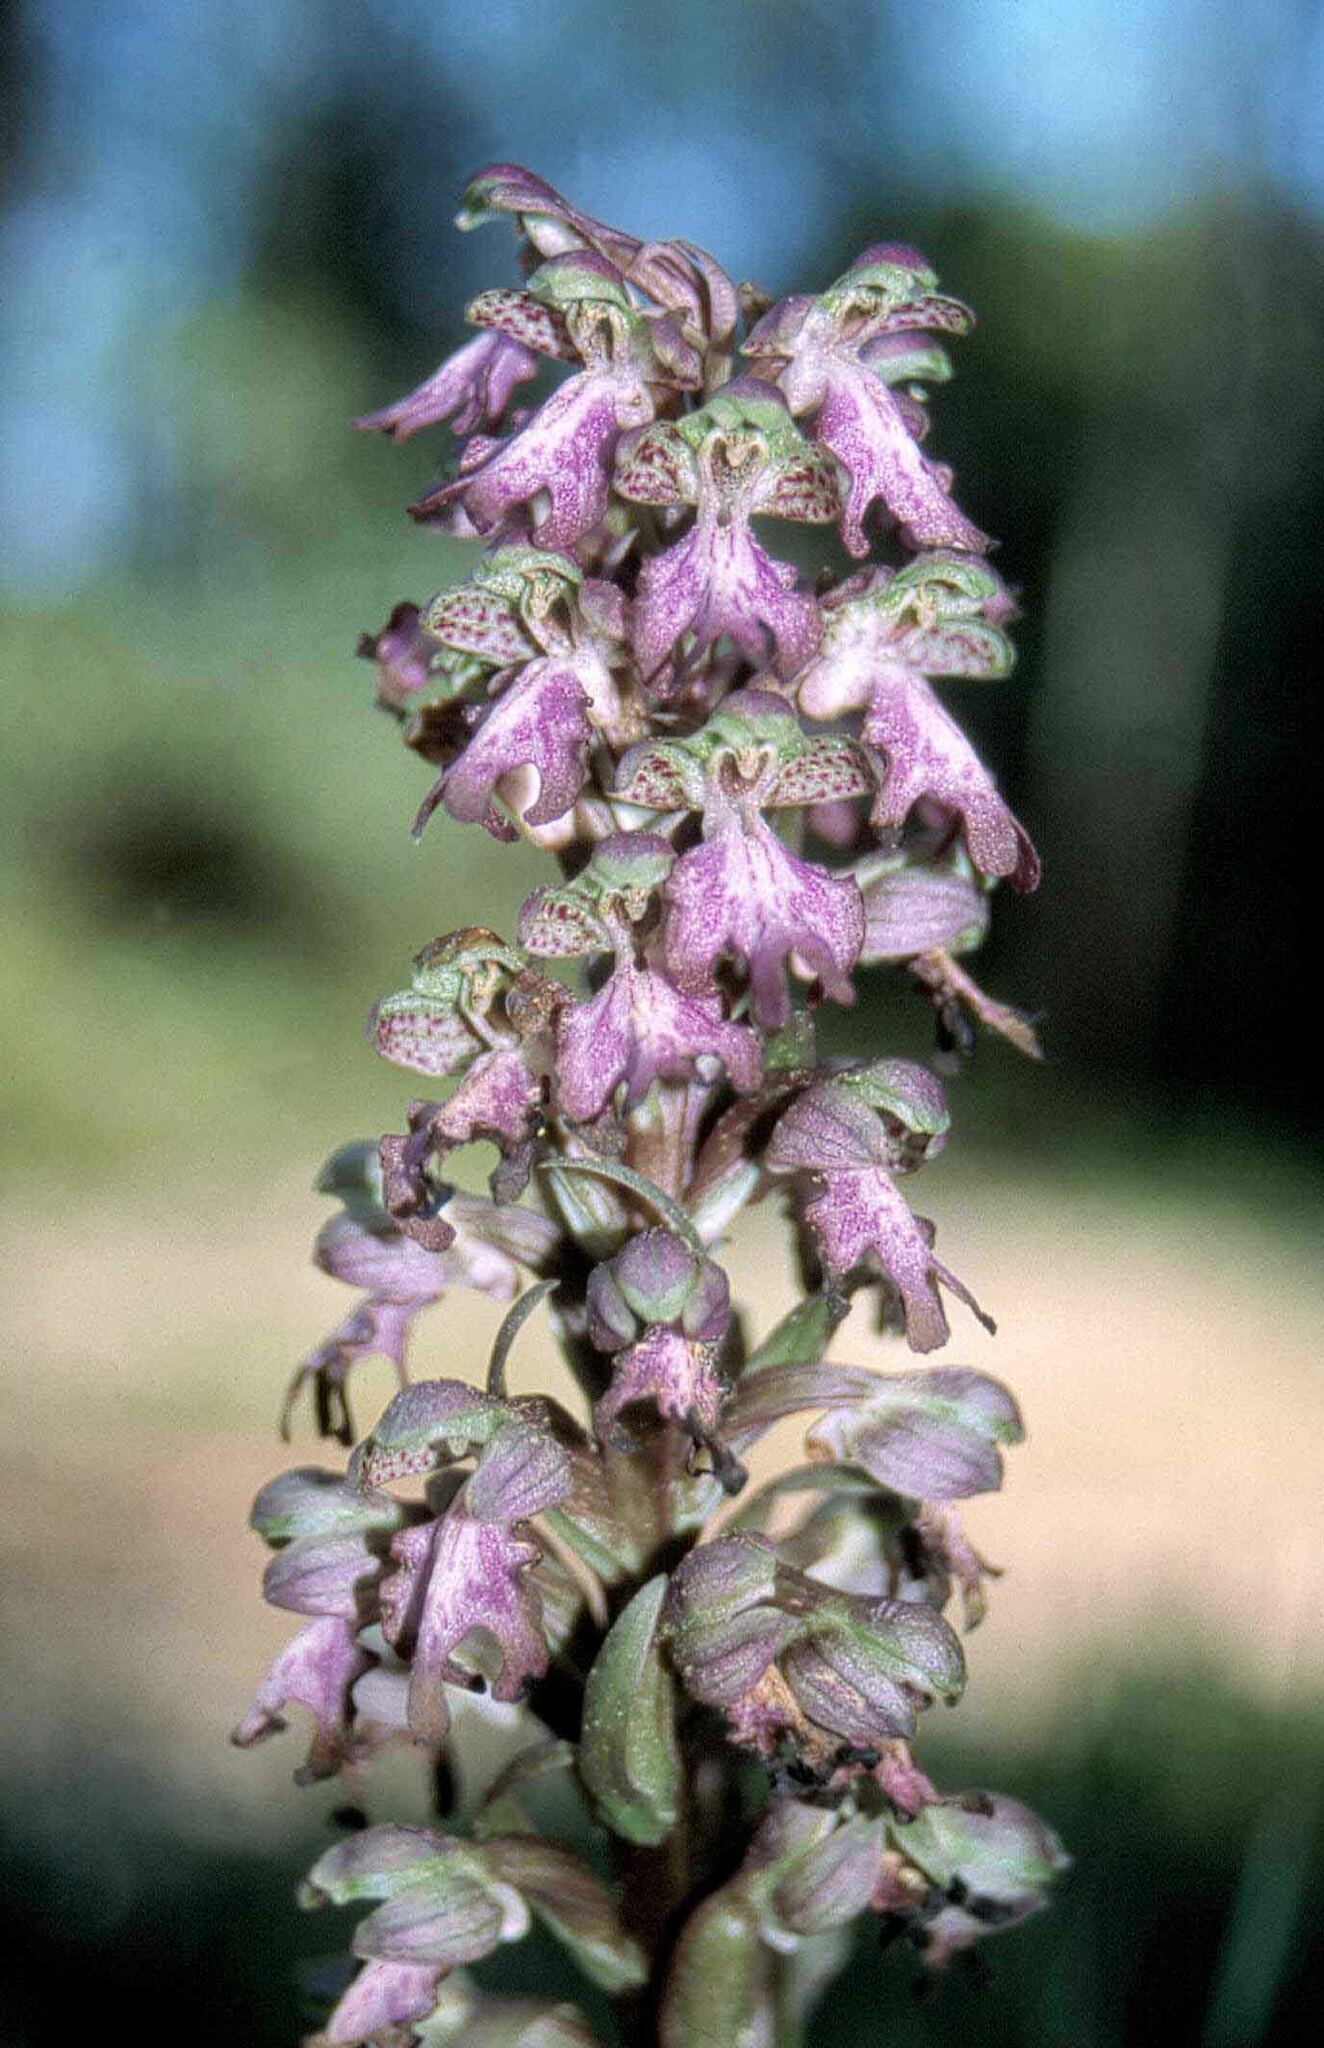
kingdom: Plantae
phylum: Tracheophyta
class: Liliopsida
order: Asparagales
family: Orchidaceae
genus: Himantoglossum
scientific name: Himantoglossum robertianum
